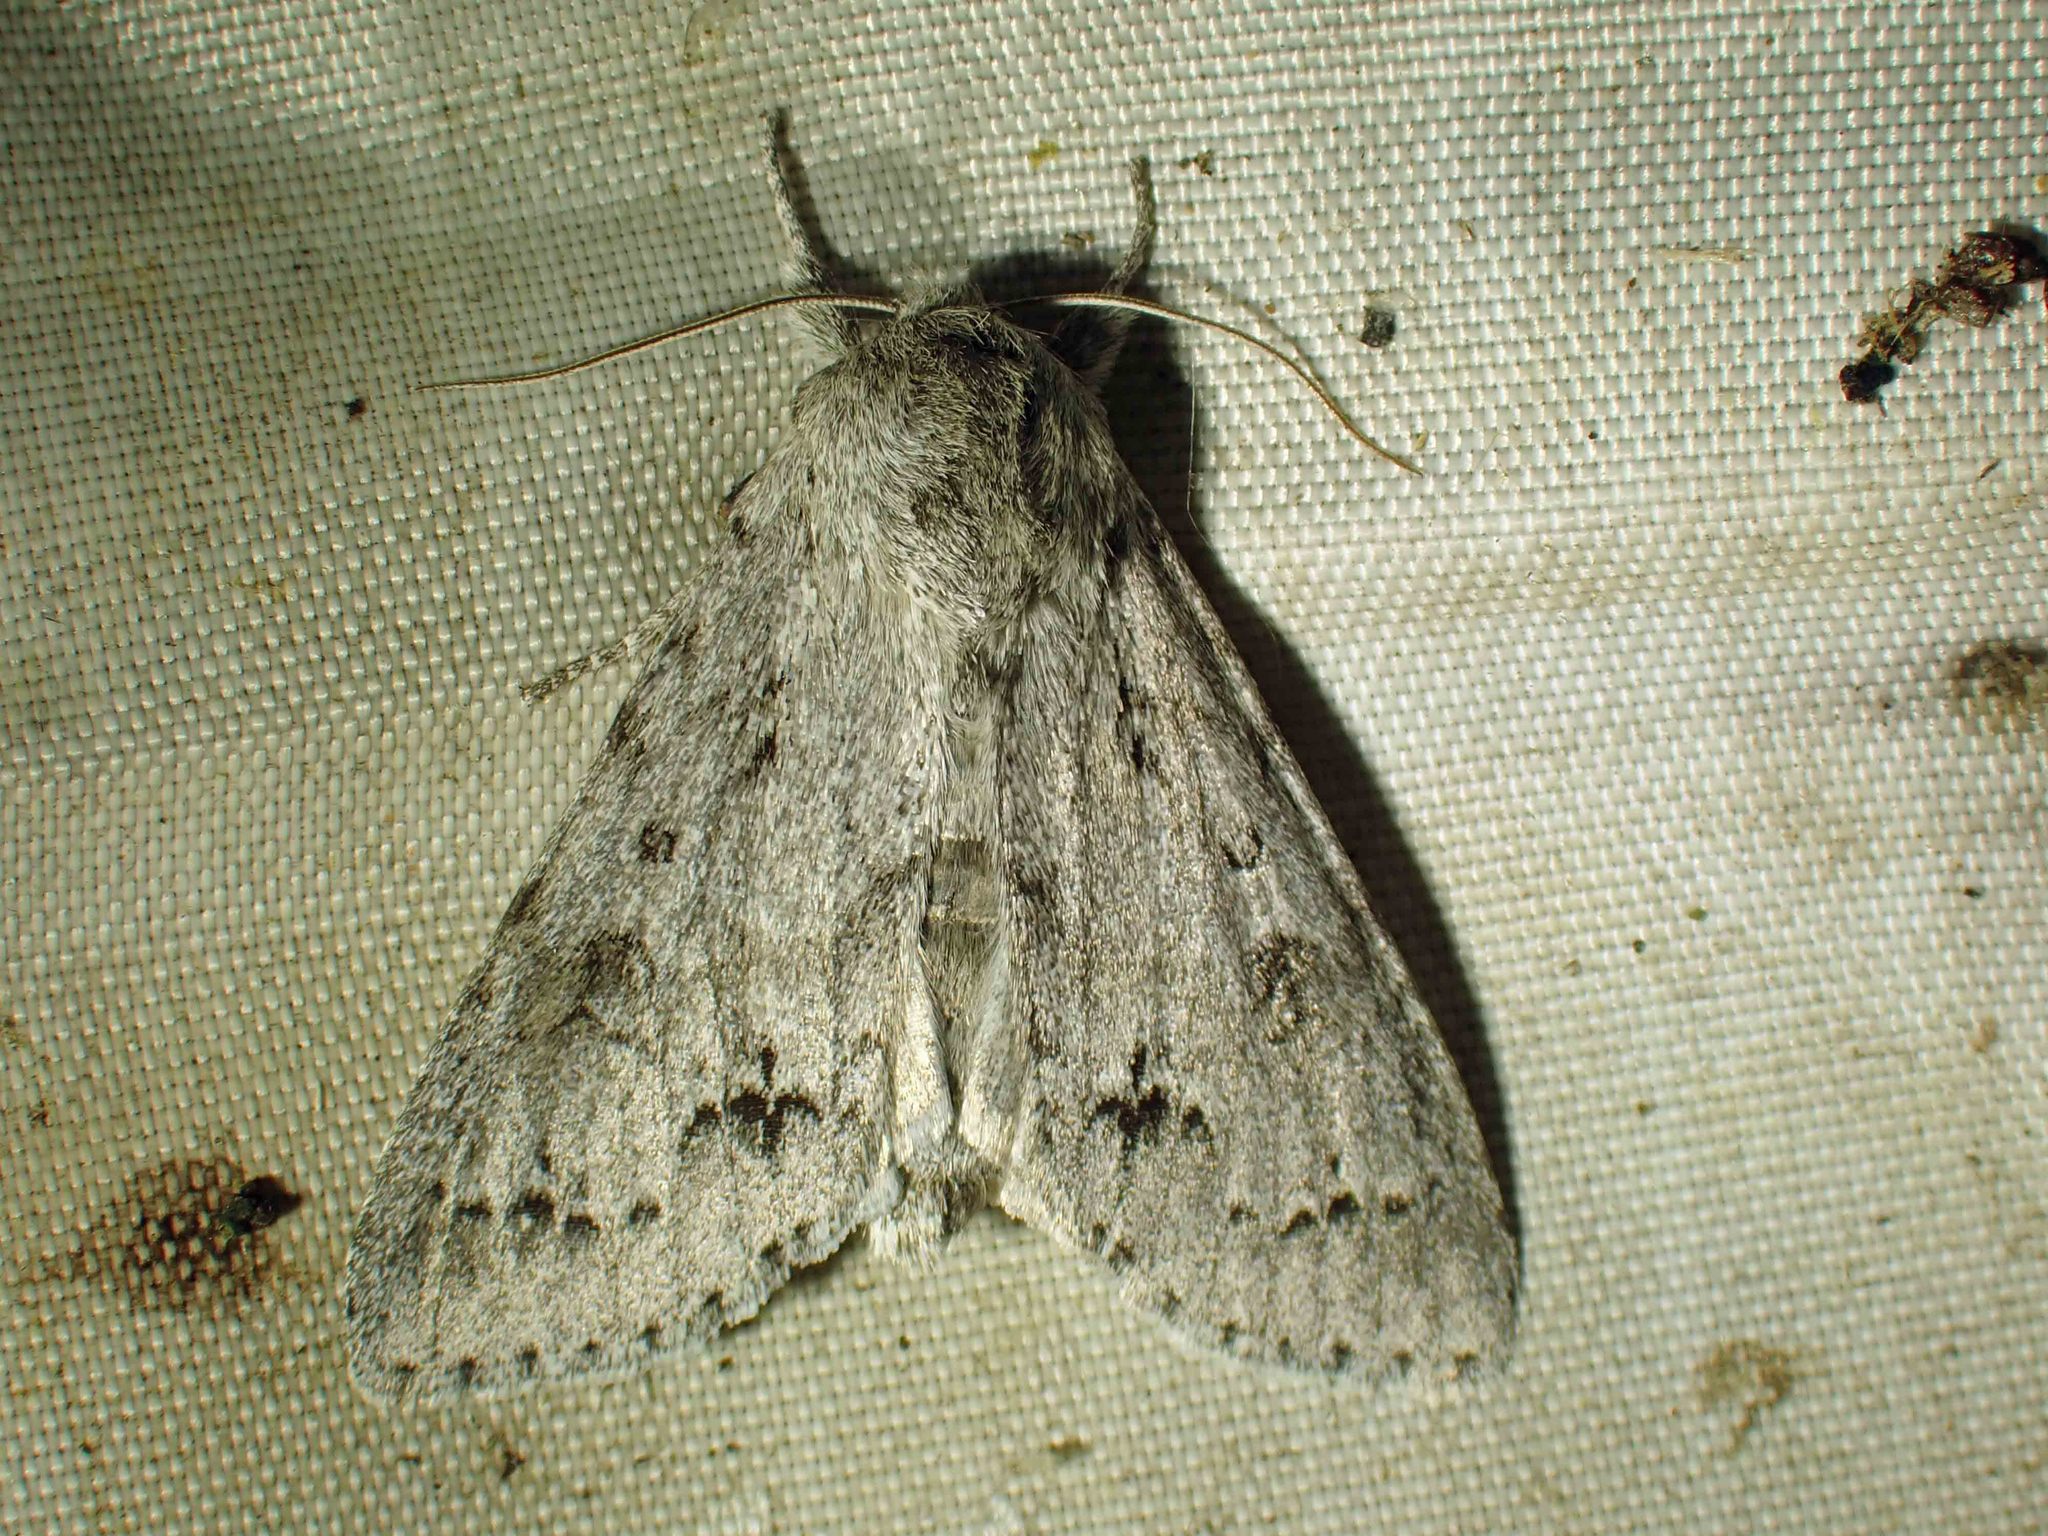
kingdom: Animalia
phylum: Arthropoda
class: Insecta
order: Lepidoptera
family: Noctuidae
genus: Acronicta
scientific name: Acronicta insita
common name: Large gray dagger
